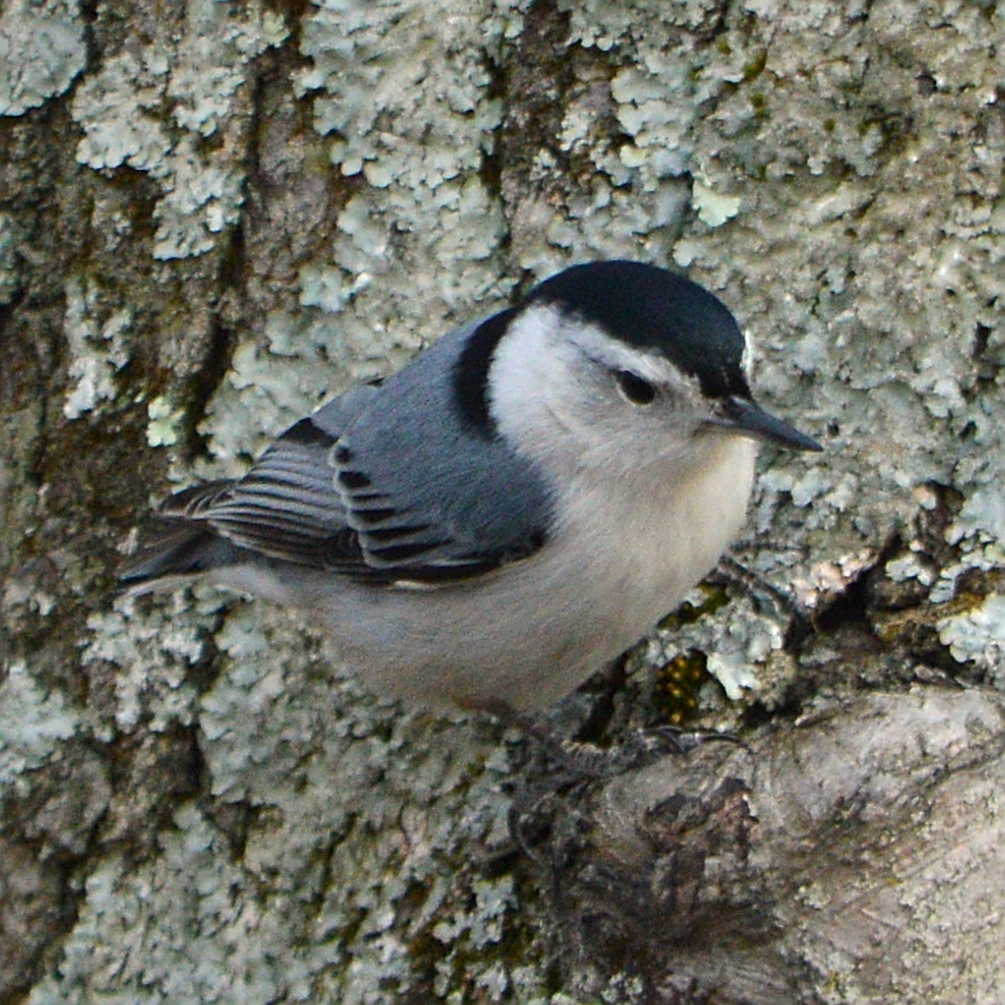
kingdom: Animalia
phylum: Chordata
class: Aves
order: Passeriformes
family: Sittidae
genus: Sitta
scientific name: Sitta carolinensis
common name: White-breasted nuthatch
